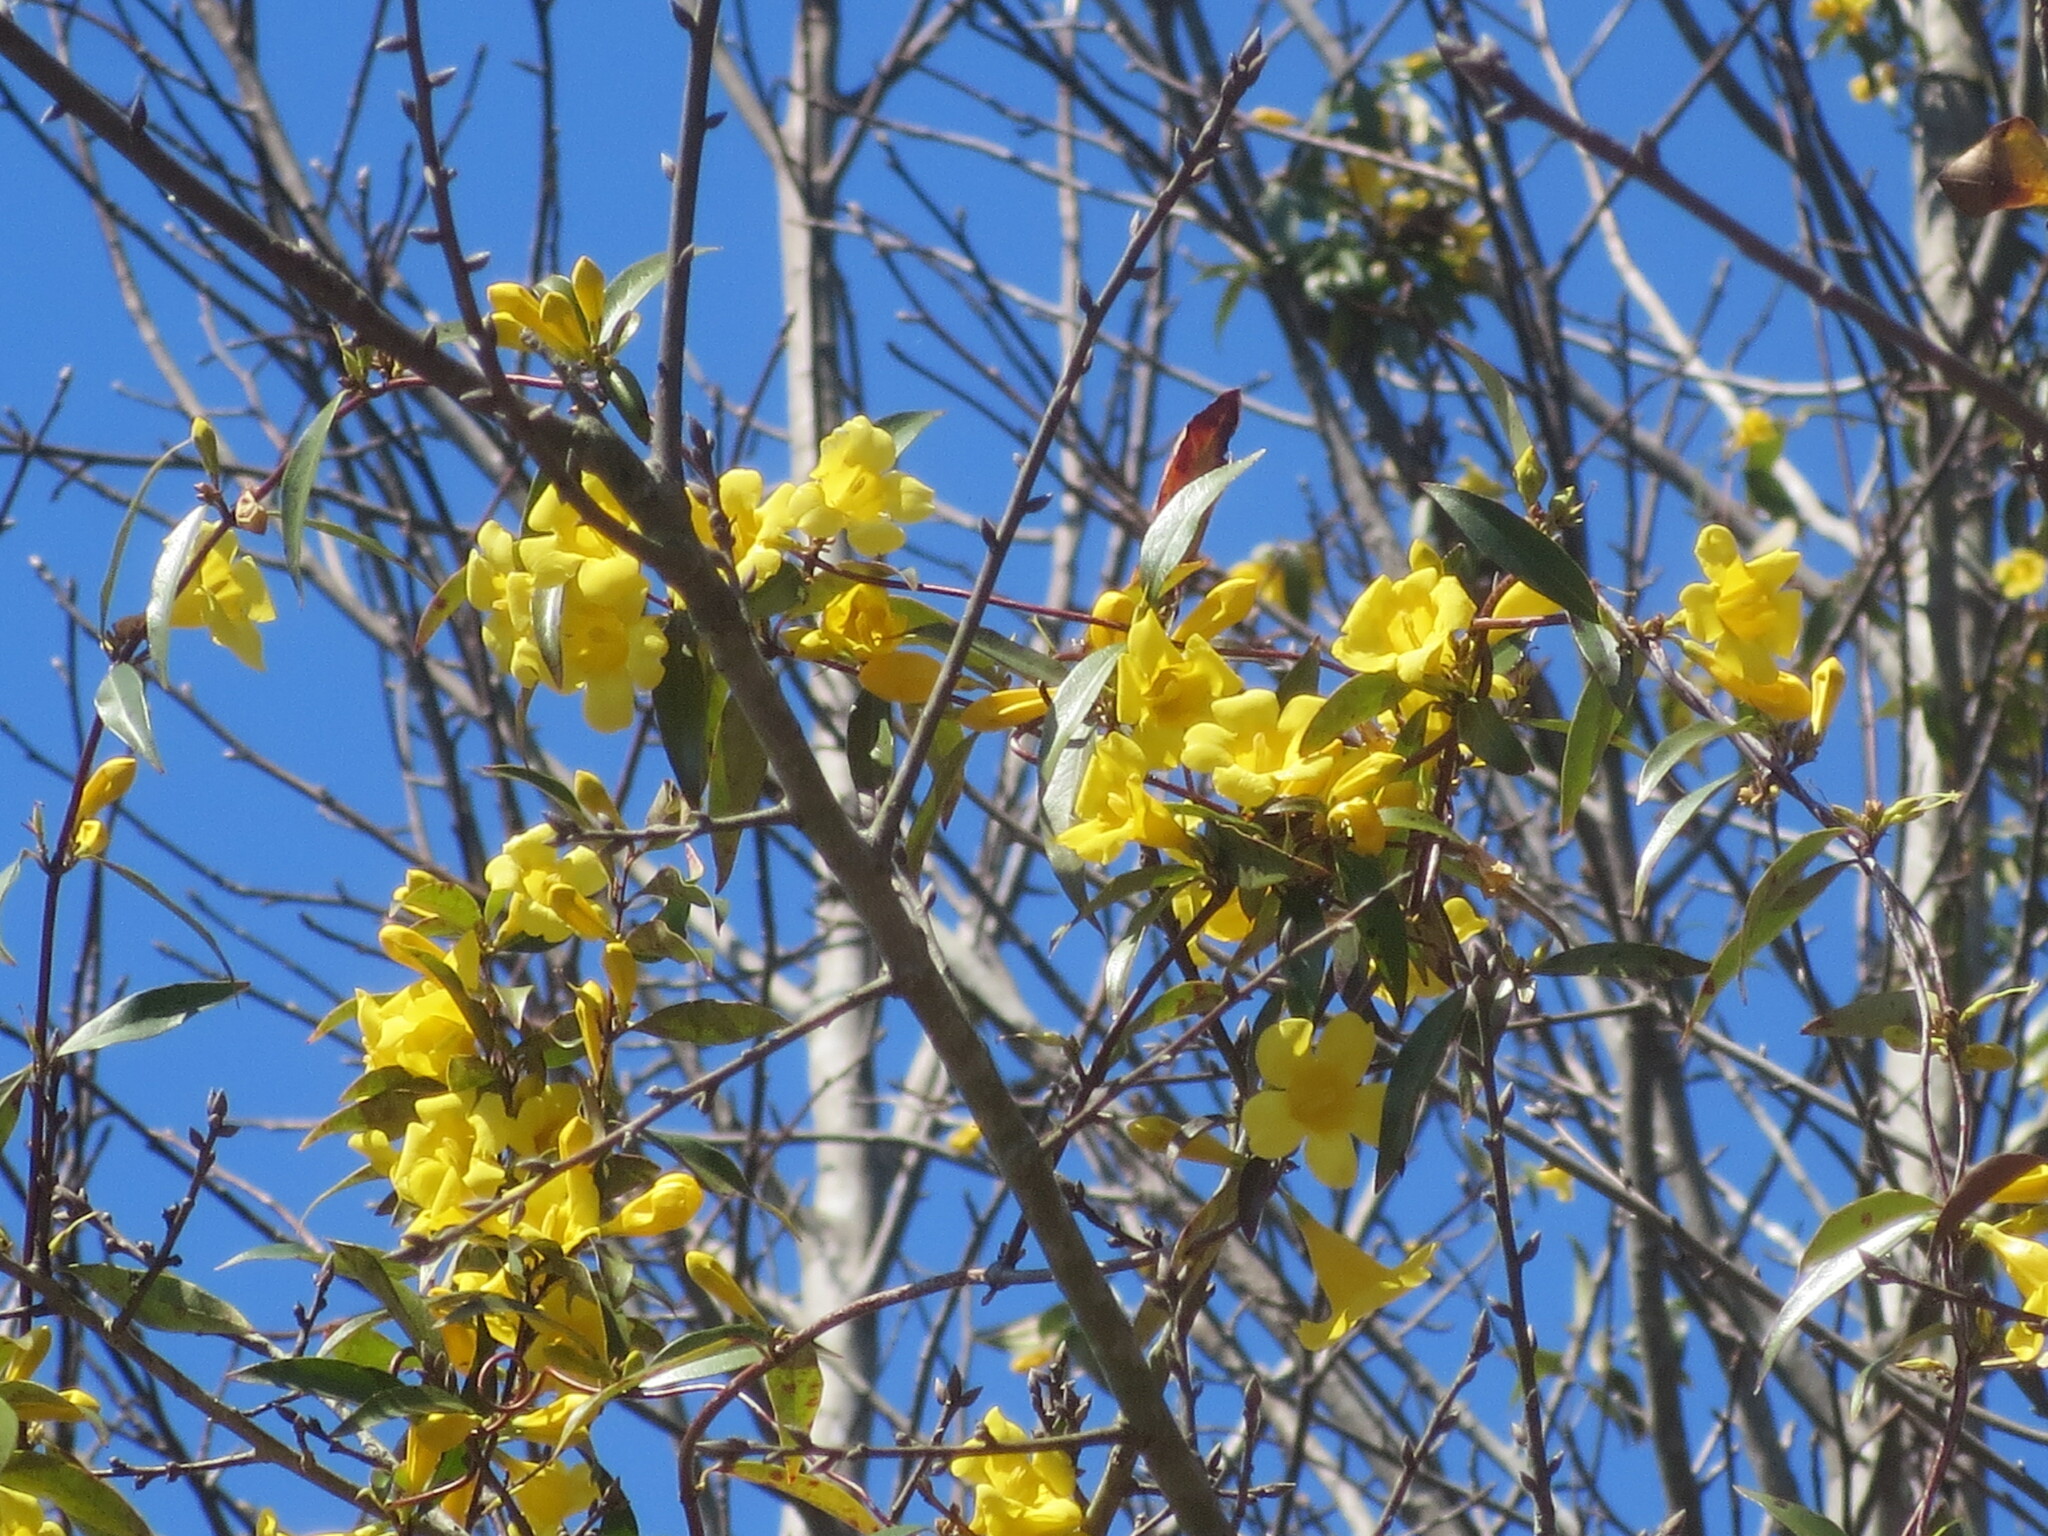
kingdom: Plantae
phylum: Tracheophyta
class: Magnoliopsida
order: Gentianales
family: Gelsemiaceae
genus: Gelsemium
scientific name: Gelsemium sempervirens
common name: Carolina-jasmine
